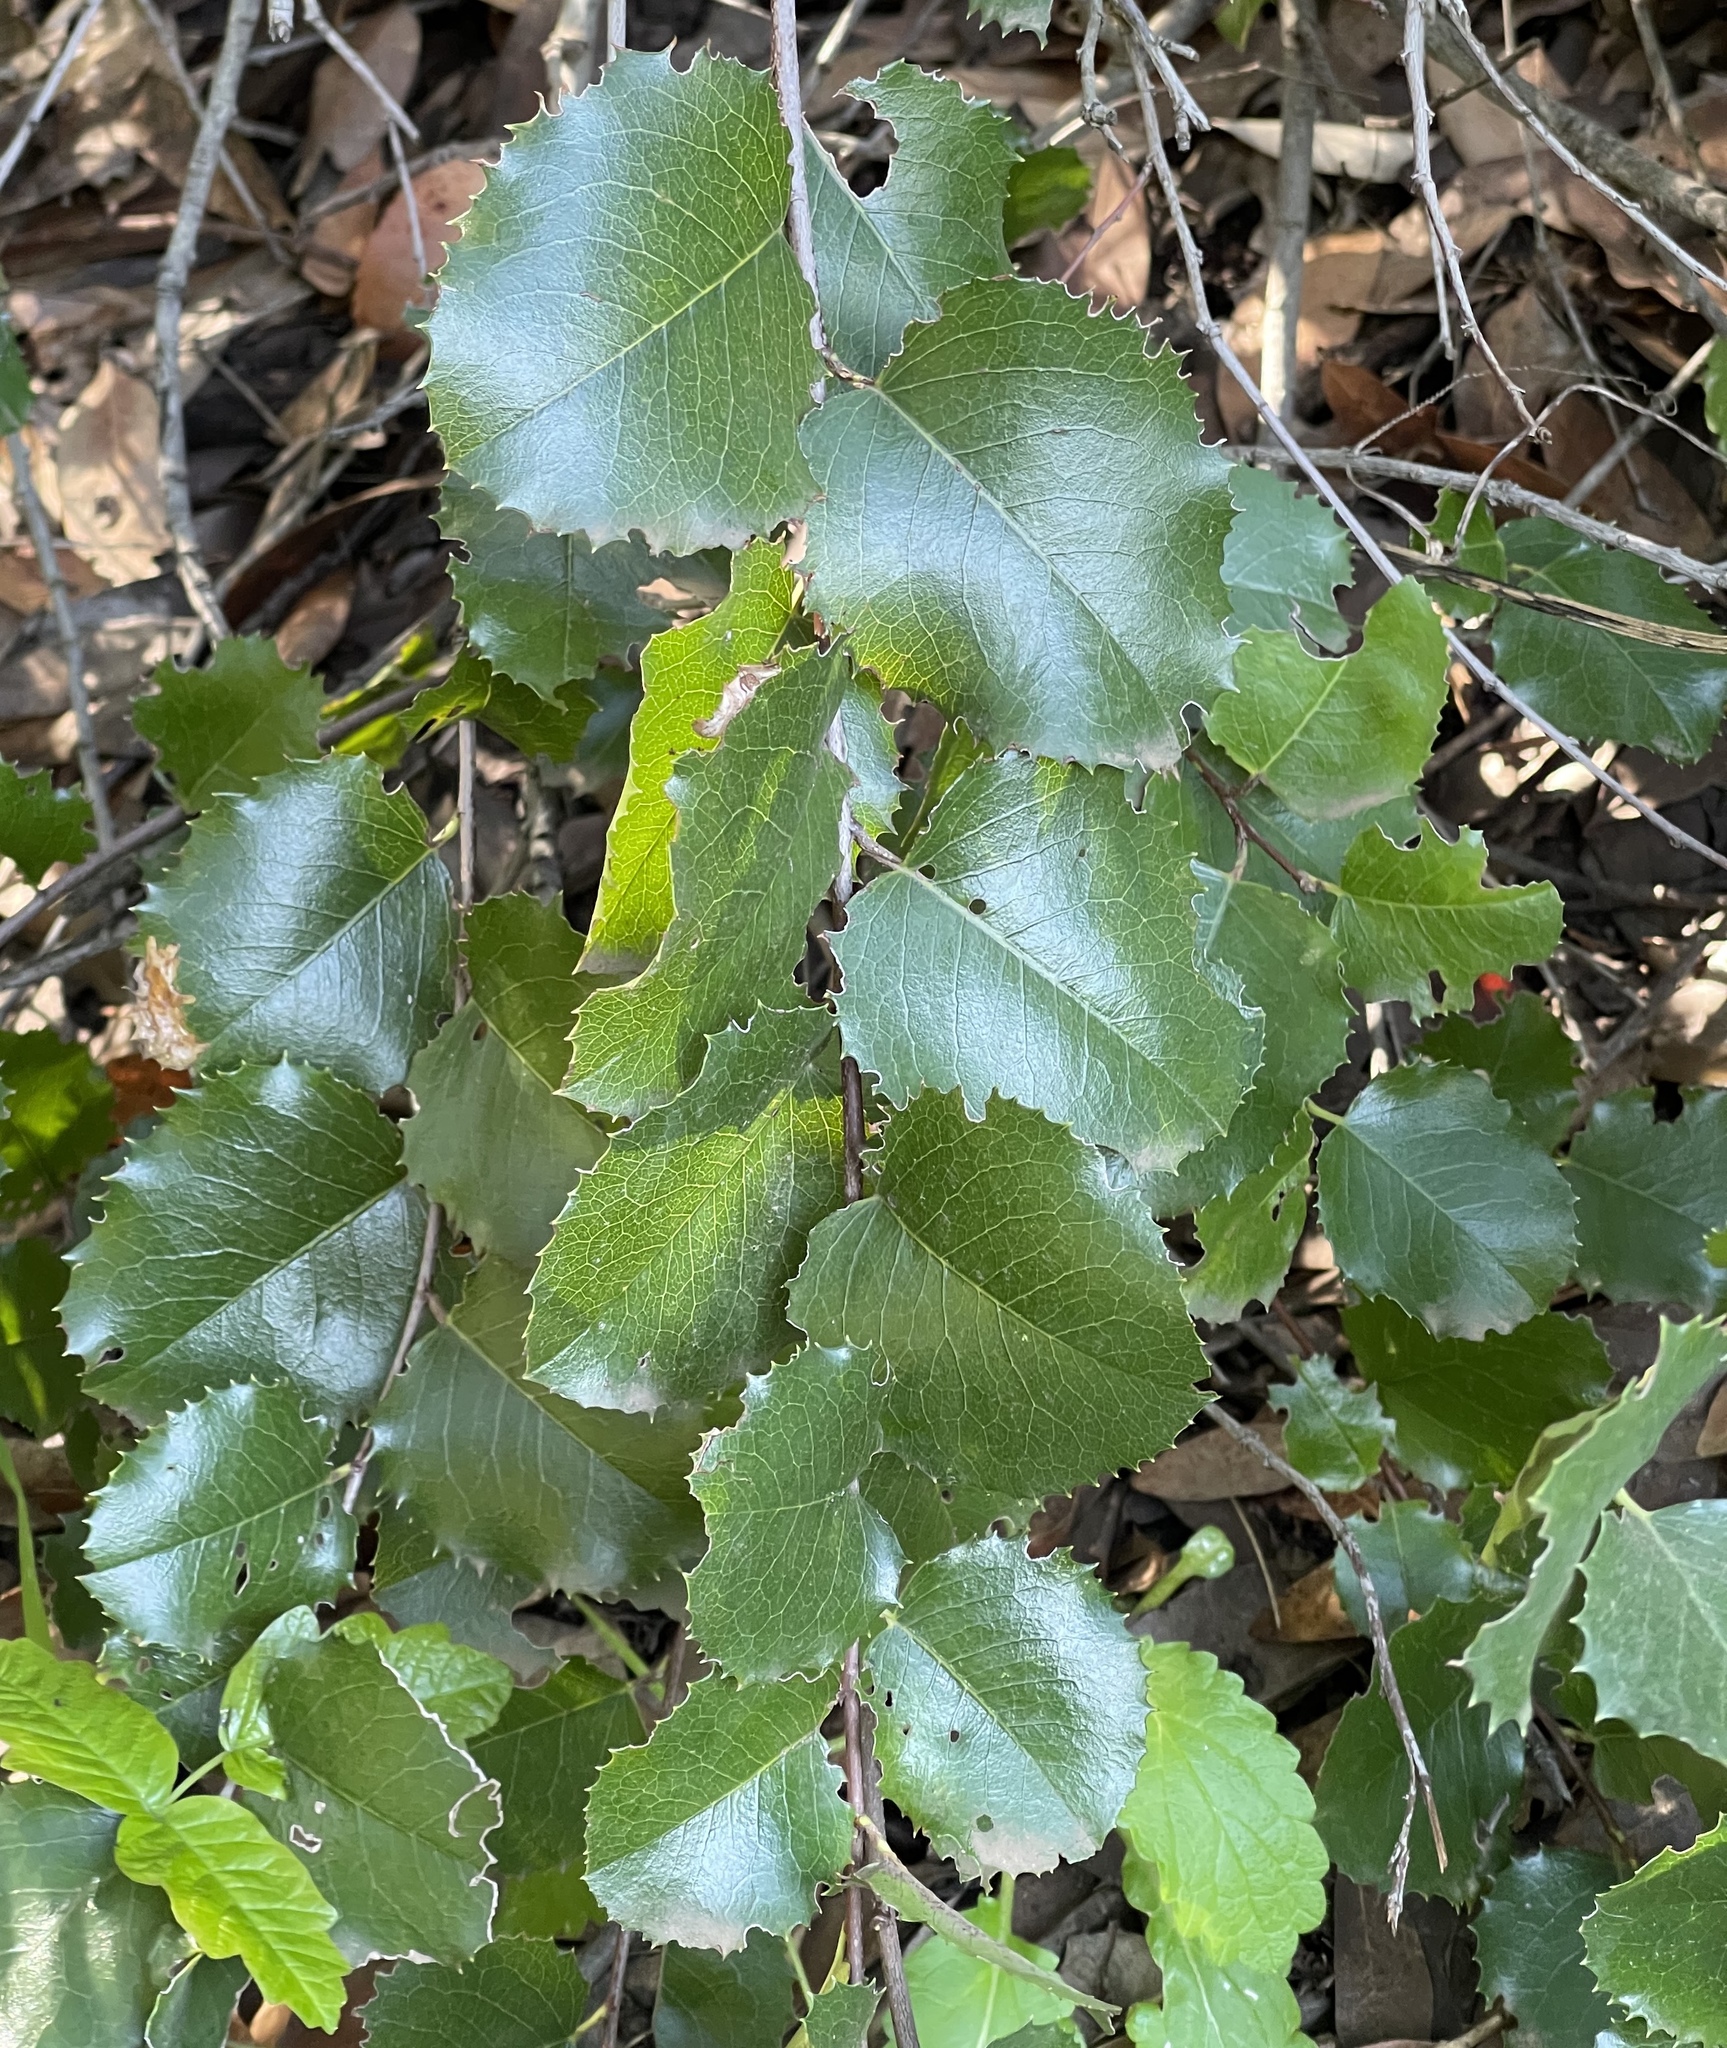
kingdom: Plantae
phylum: Tracheophyta
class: Magnoliopsida
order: Rosales
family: Rosaceae
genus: Prunus
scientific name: Prunus ilicifolia
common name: Hollyleaf cherry
